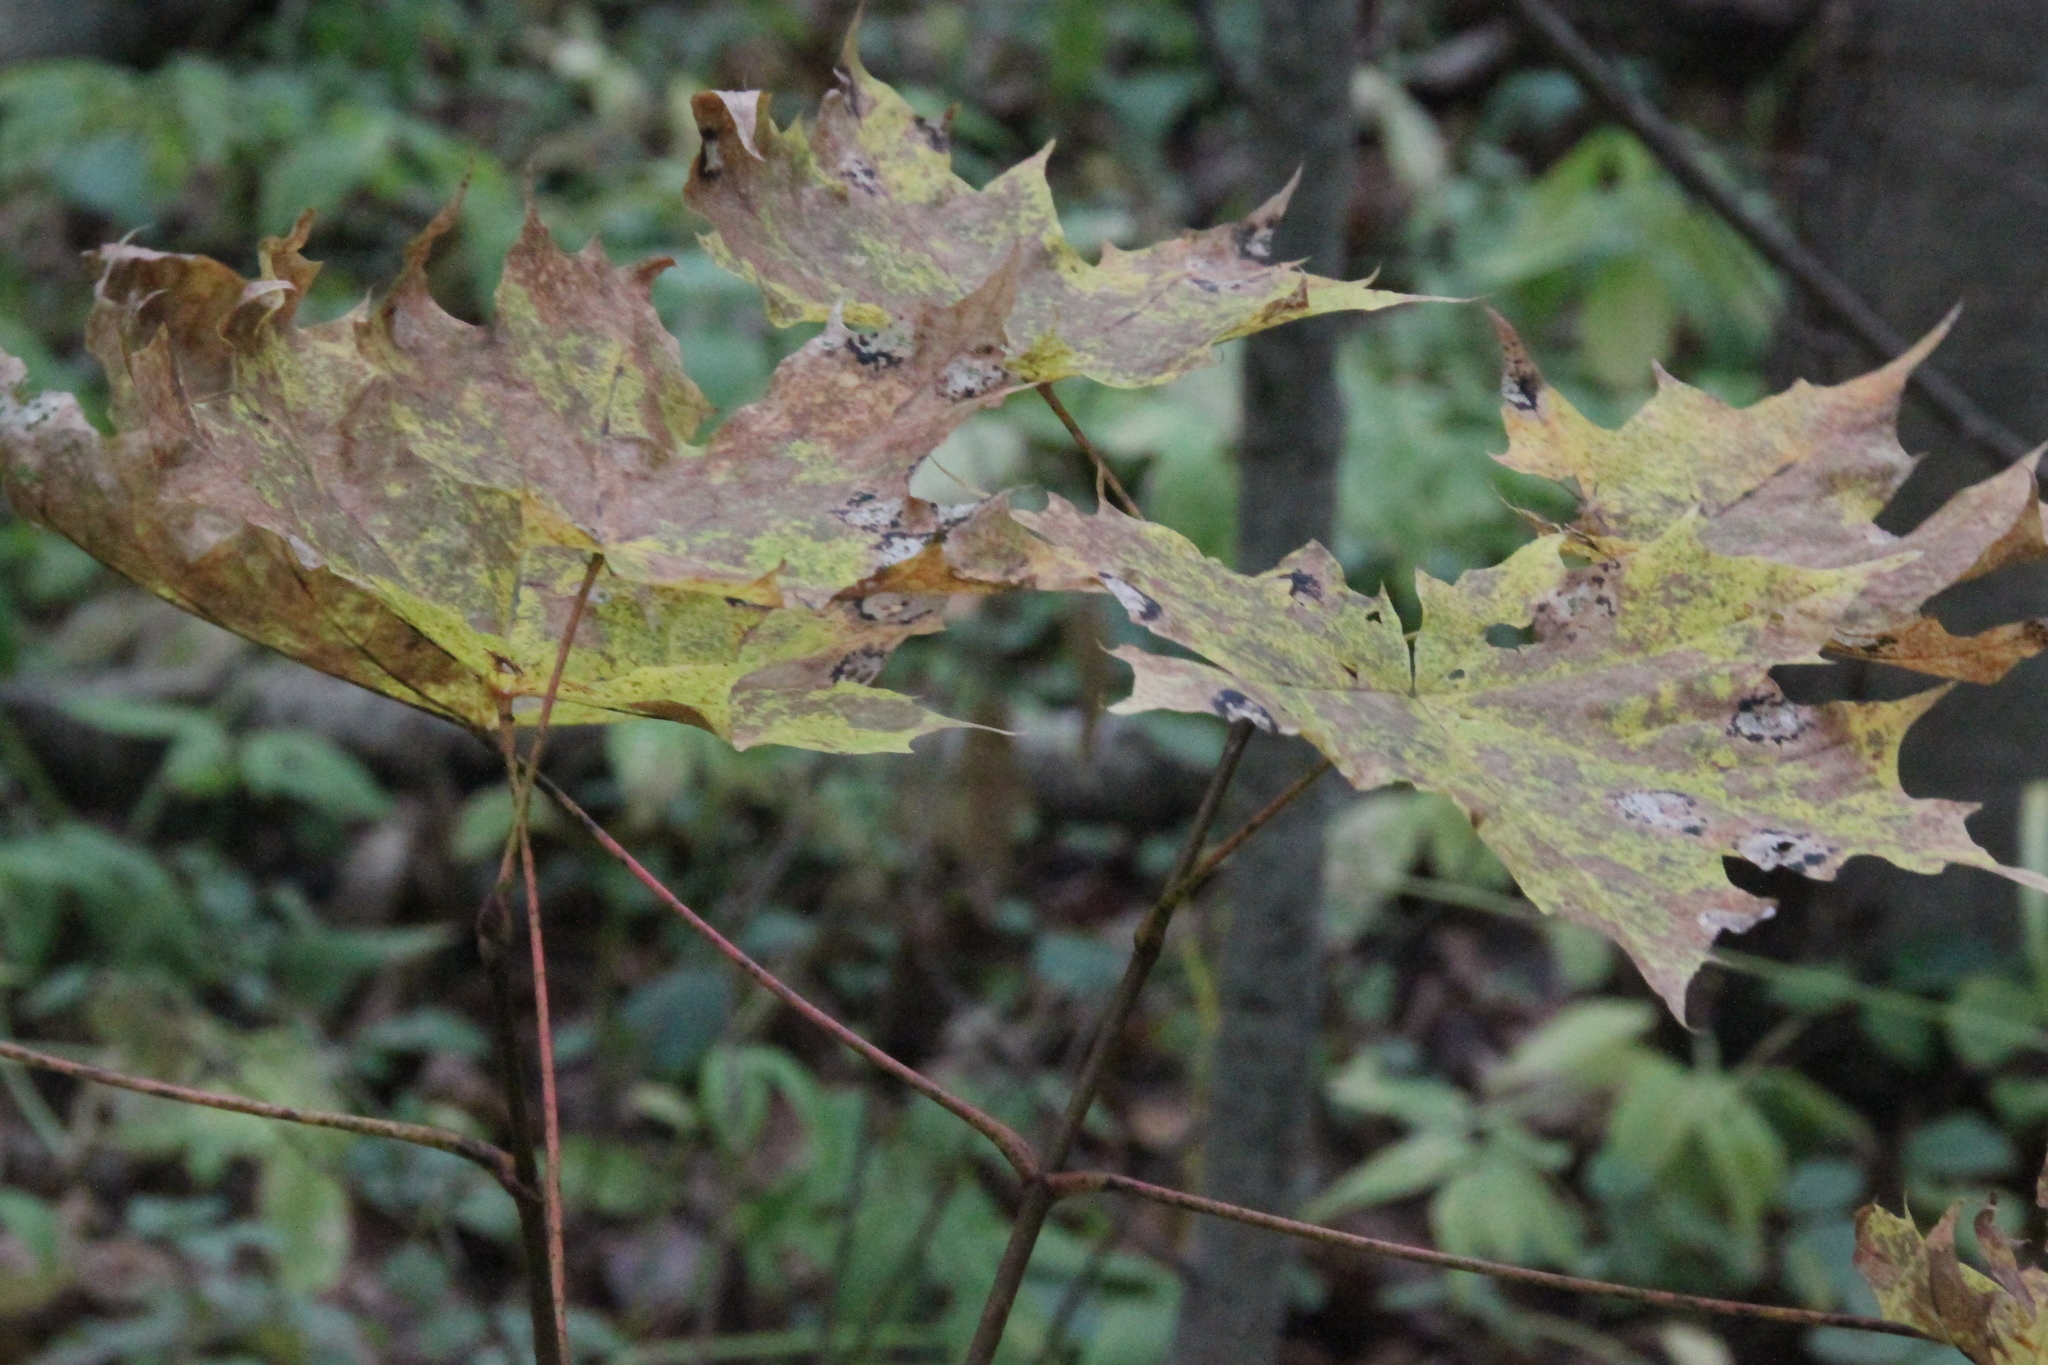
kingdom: Plantae
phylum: Tracheophyta
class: Magnoliopsida
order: Sapindales
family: Sapindaceae
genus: Acer
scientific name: Acer platanoides
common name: Norway maple
